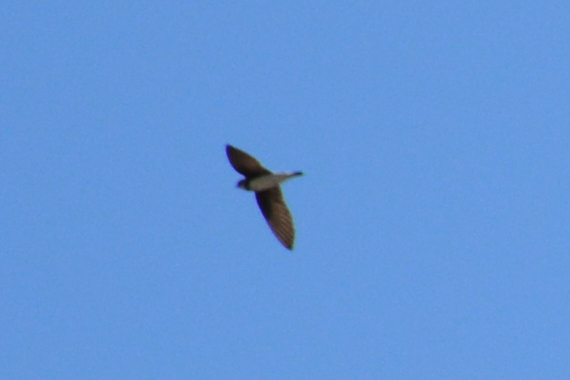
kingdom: Animalia
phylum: Chordata
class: Aves
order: Passeriformes
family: Hirundinidae
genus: Riparia
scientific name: Riparia riparia
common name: Sand martin
